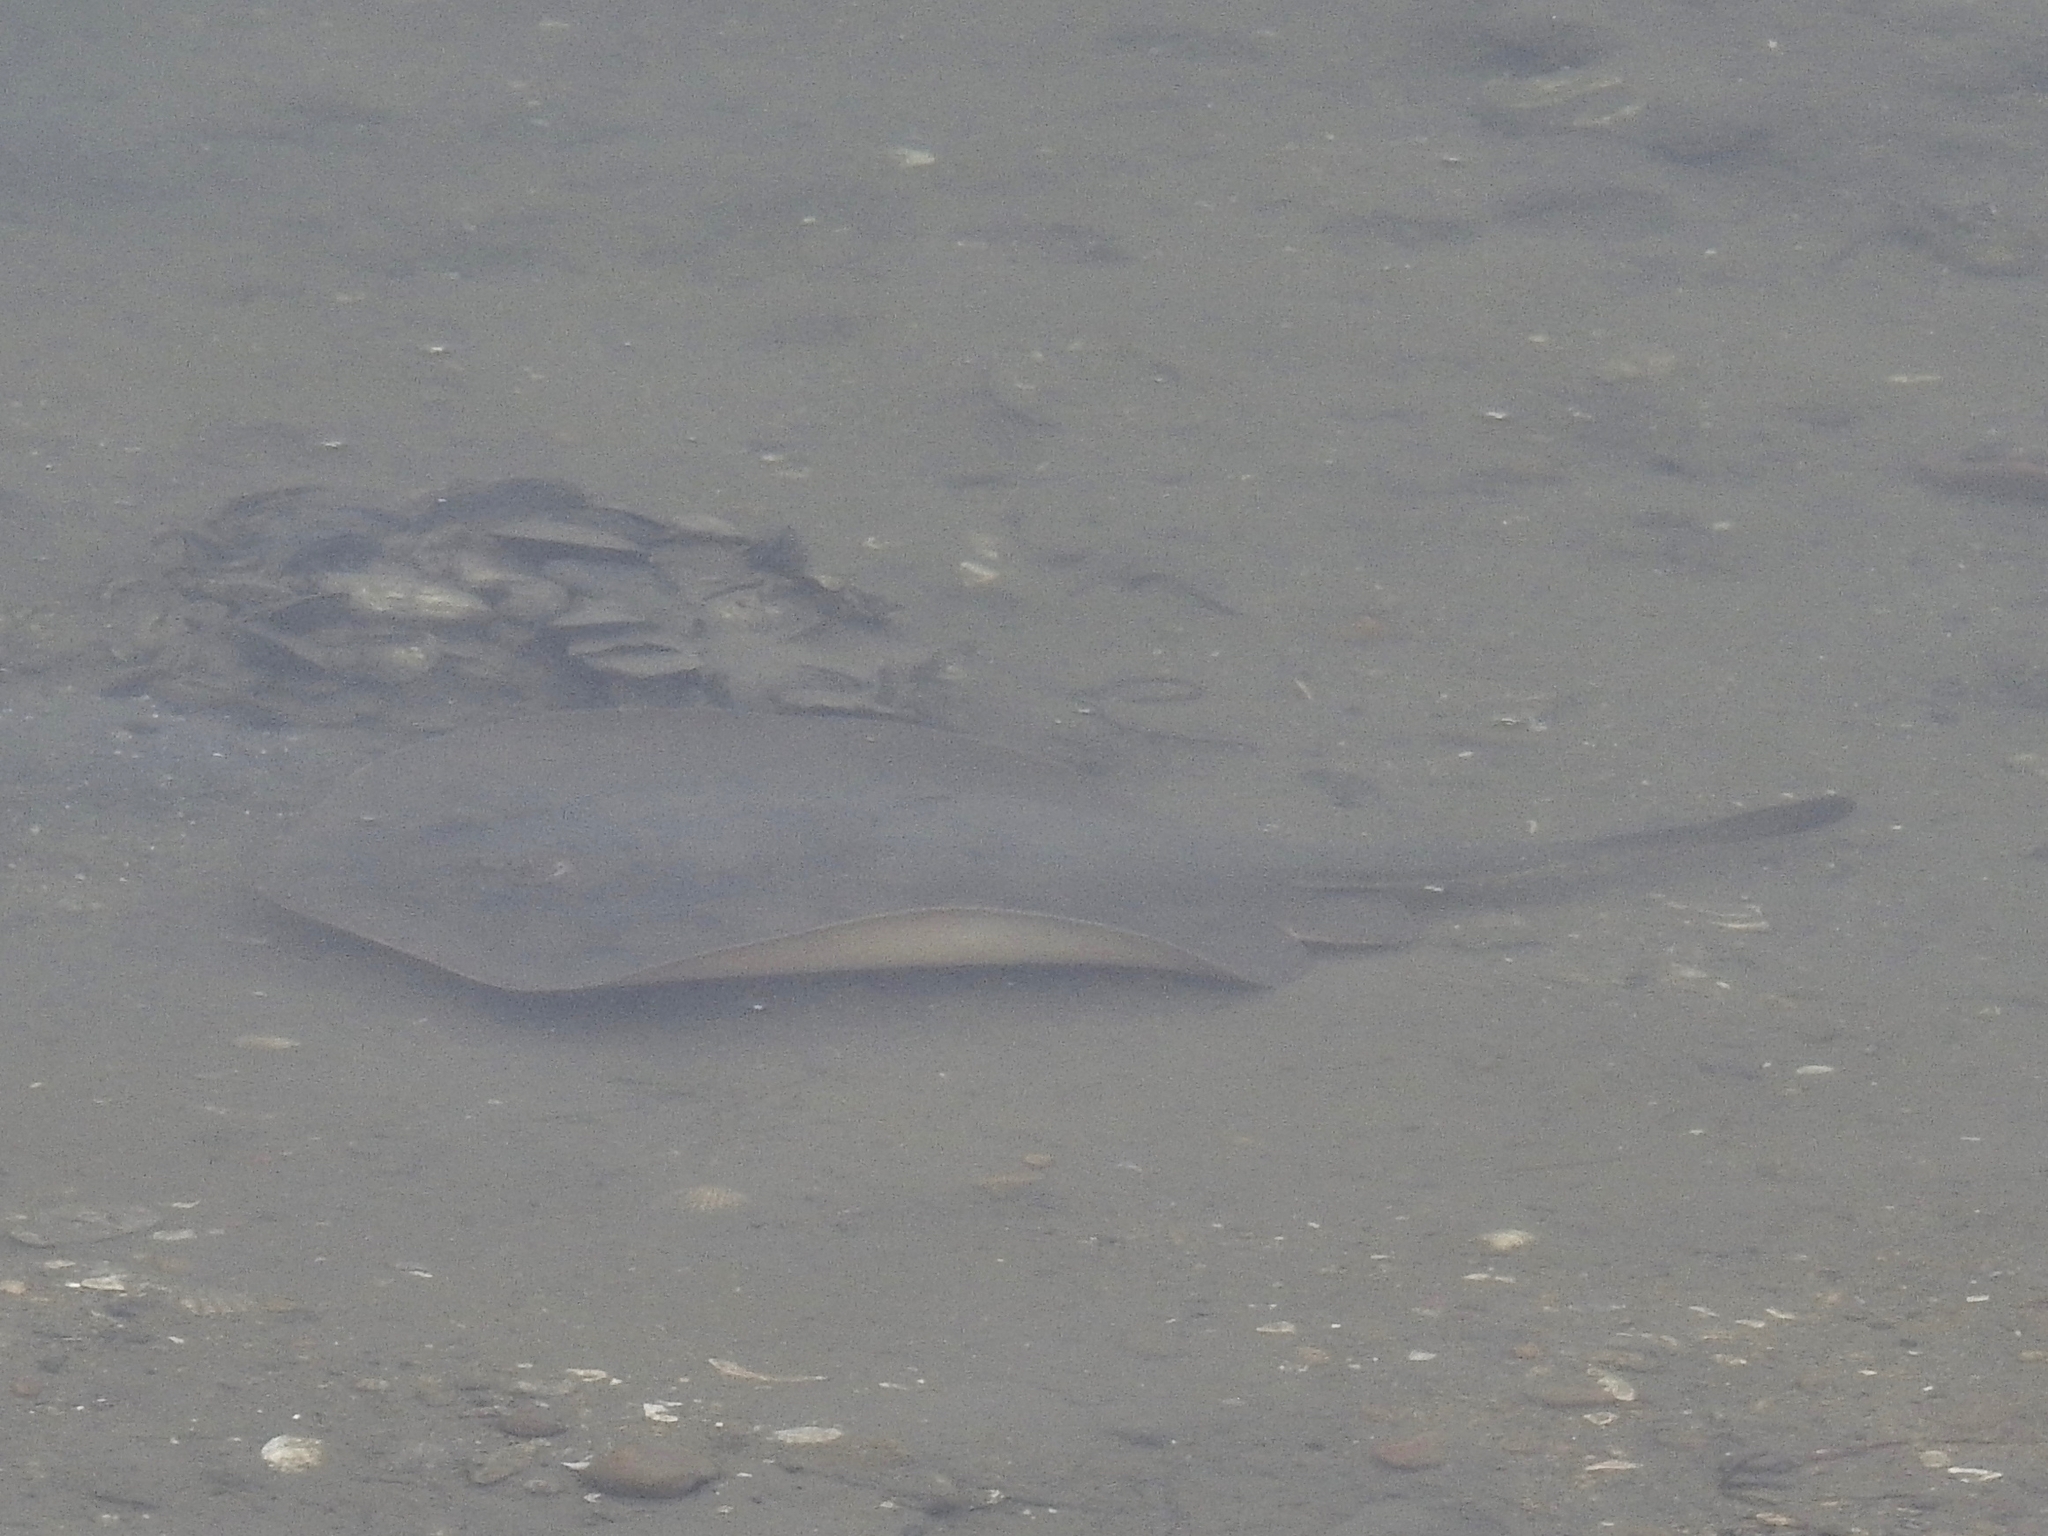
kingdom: Animalia
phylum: Chordata
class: Elasmobranchii
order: Myliobatiformes
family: Urolophidae
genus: Urolophus
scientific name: Urolophus halleri
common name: Round stingray
